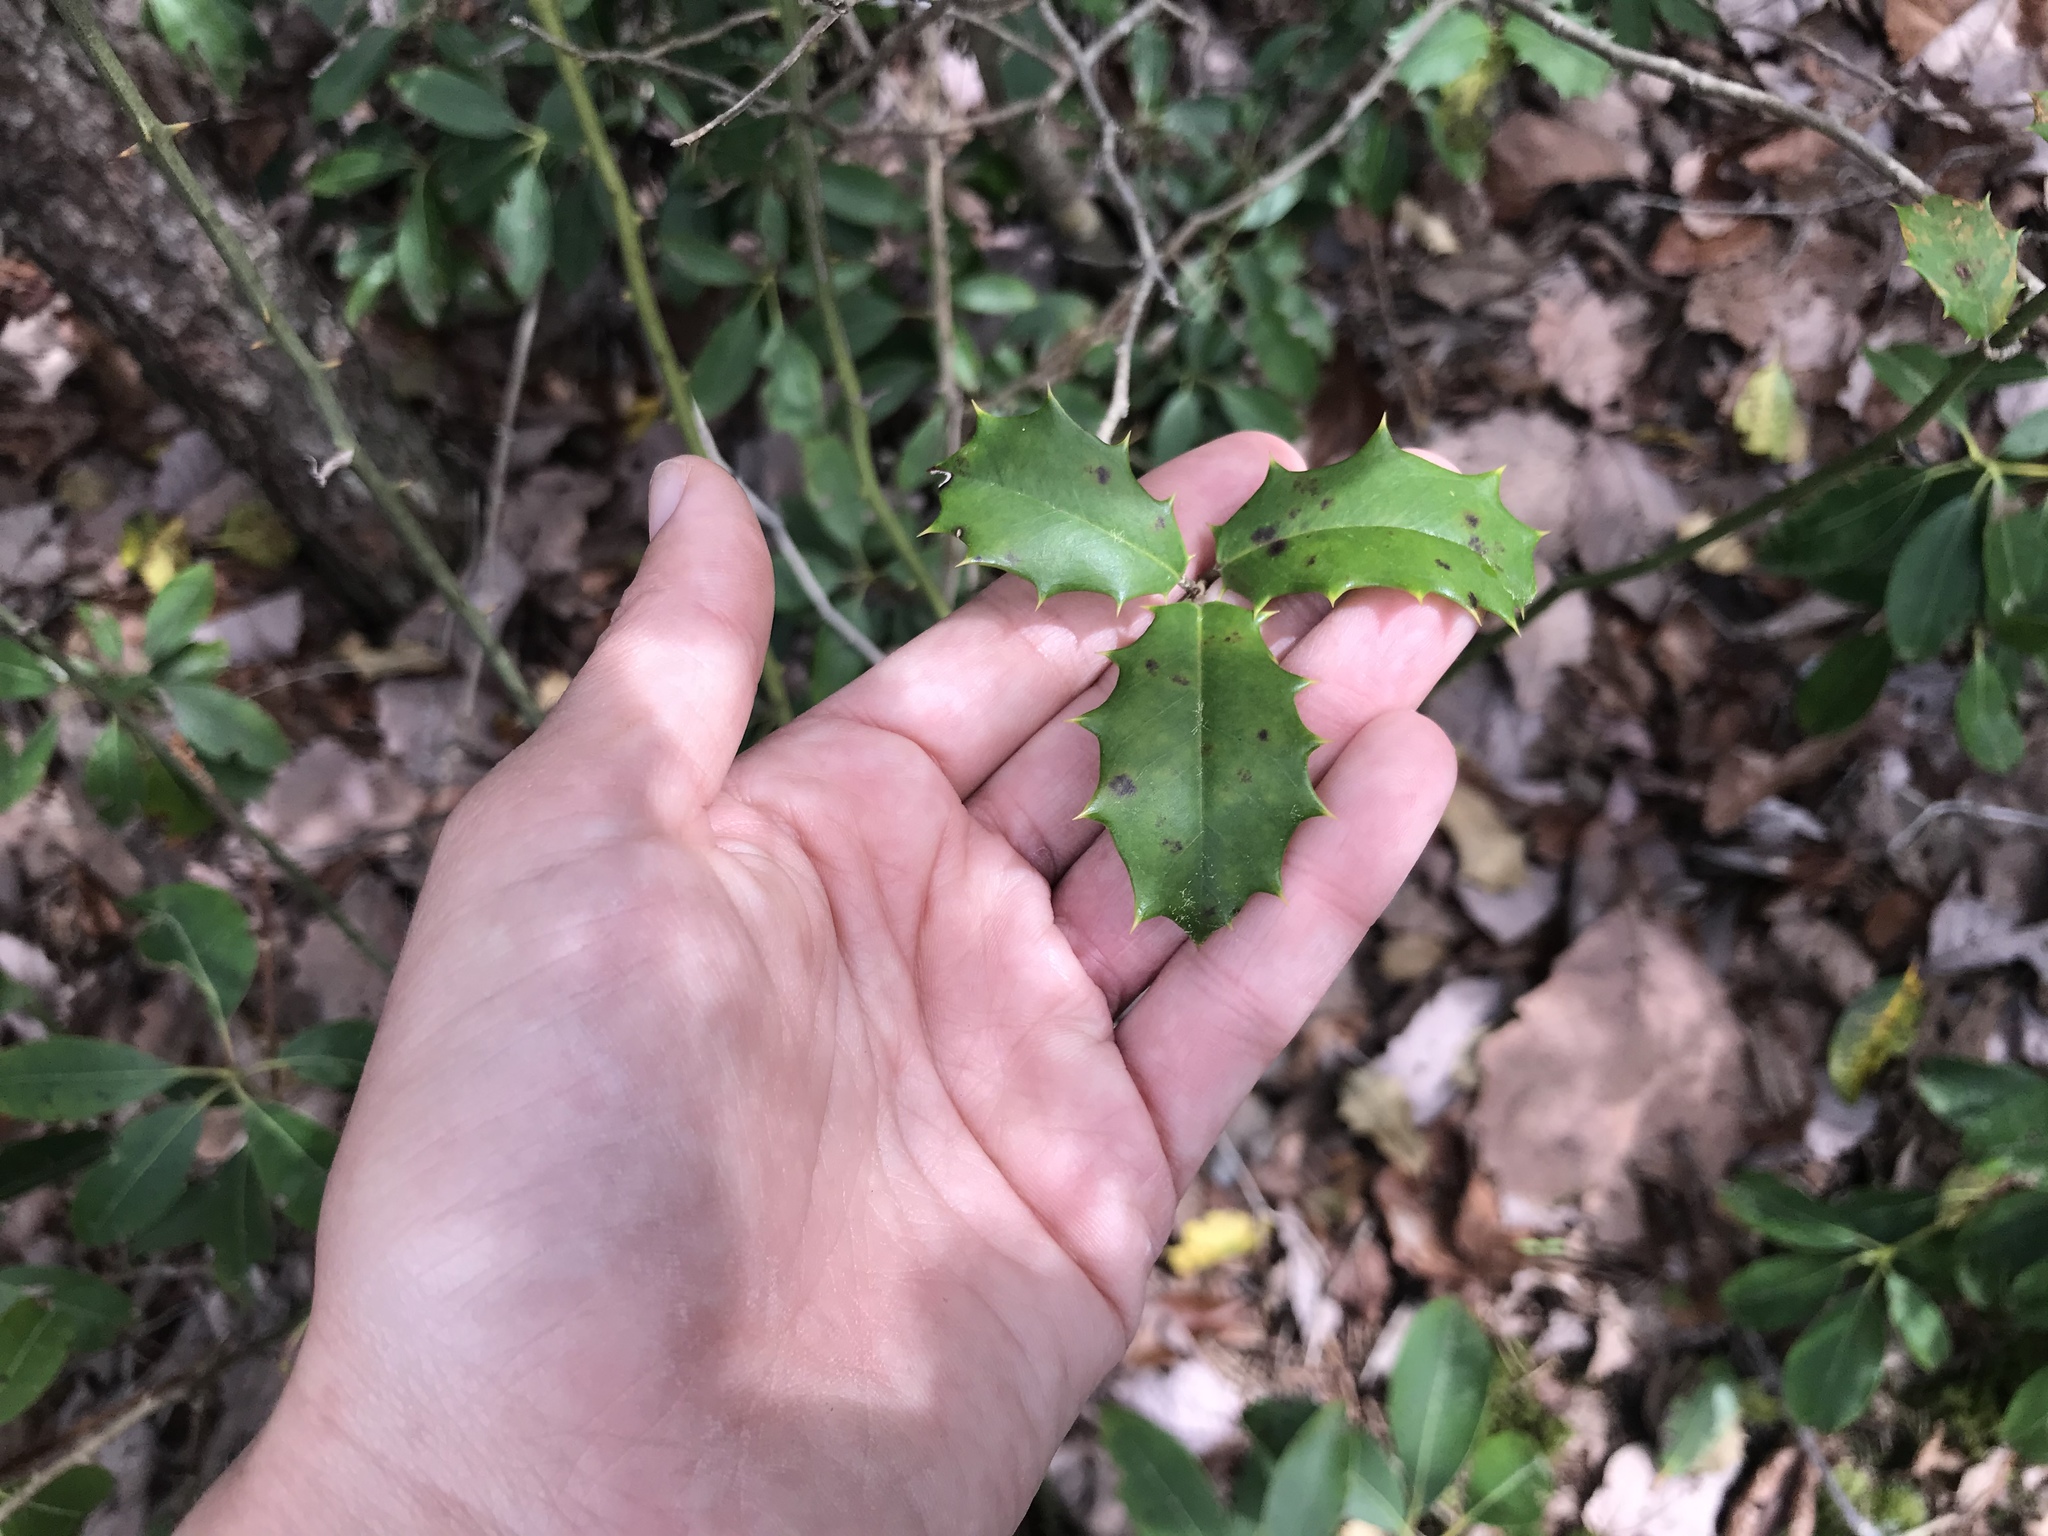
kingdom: Plantae
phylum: Tracheophyta
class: Magnoliopsida
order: Aquifoliales
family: Aquifoliaceae
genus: Ilex
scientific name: Ilex opaca
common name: American holly
